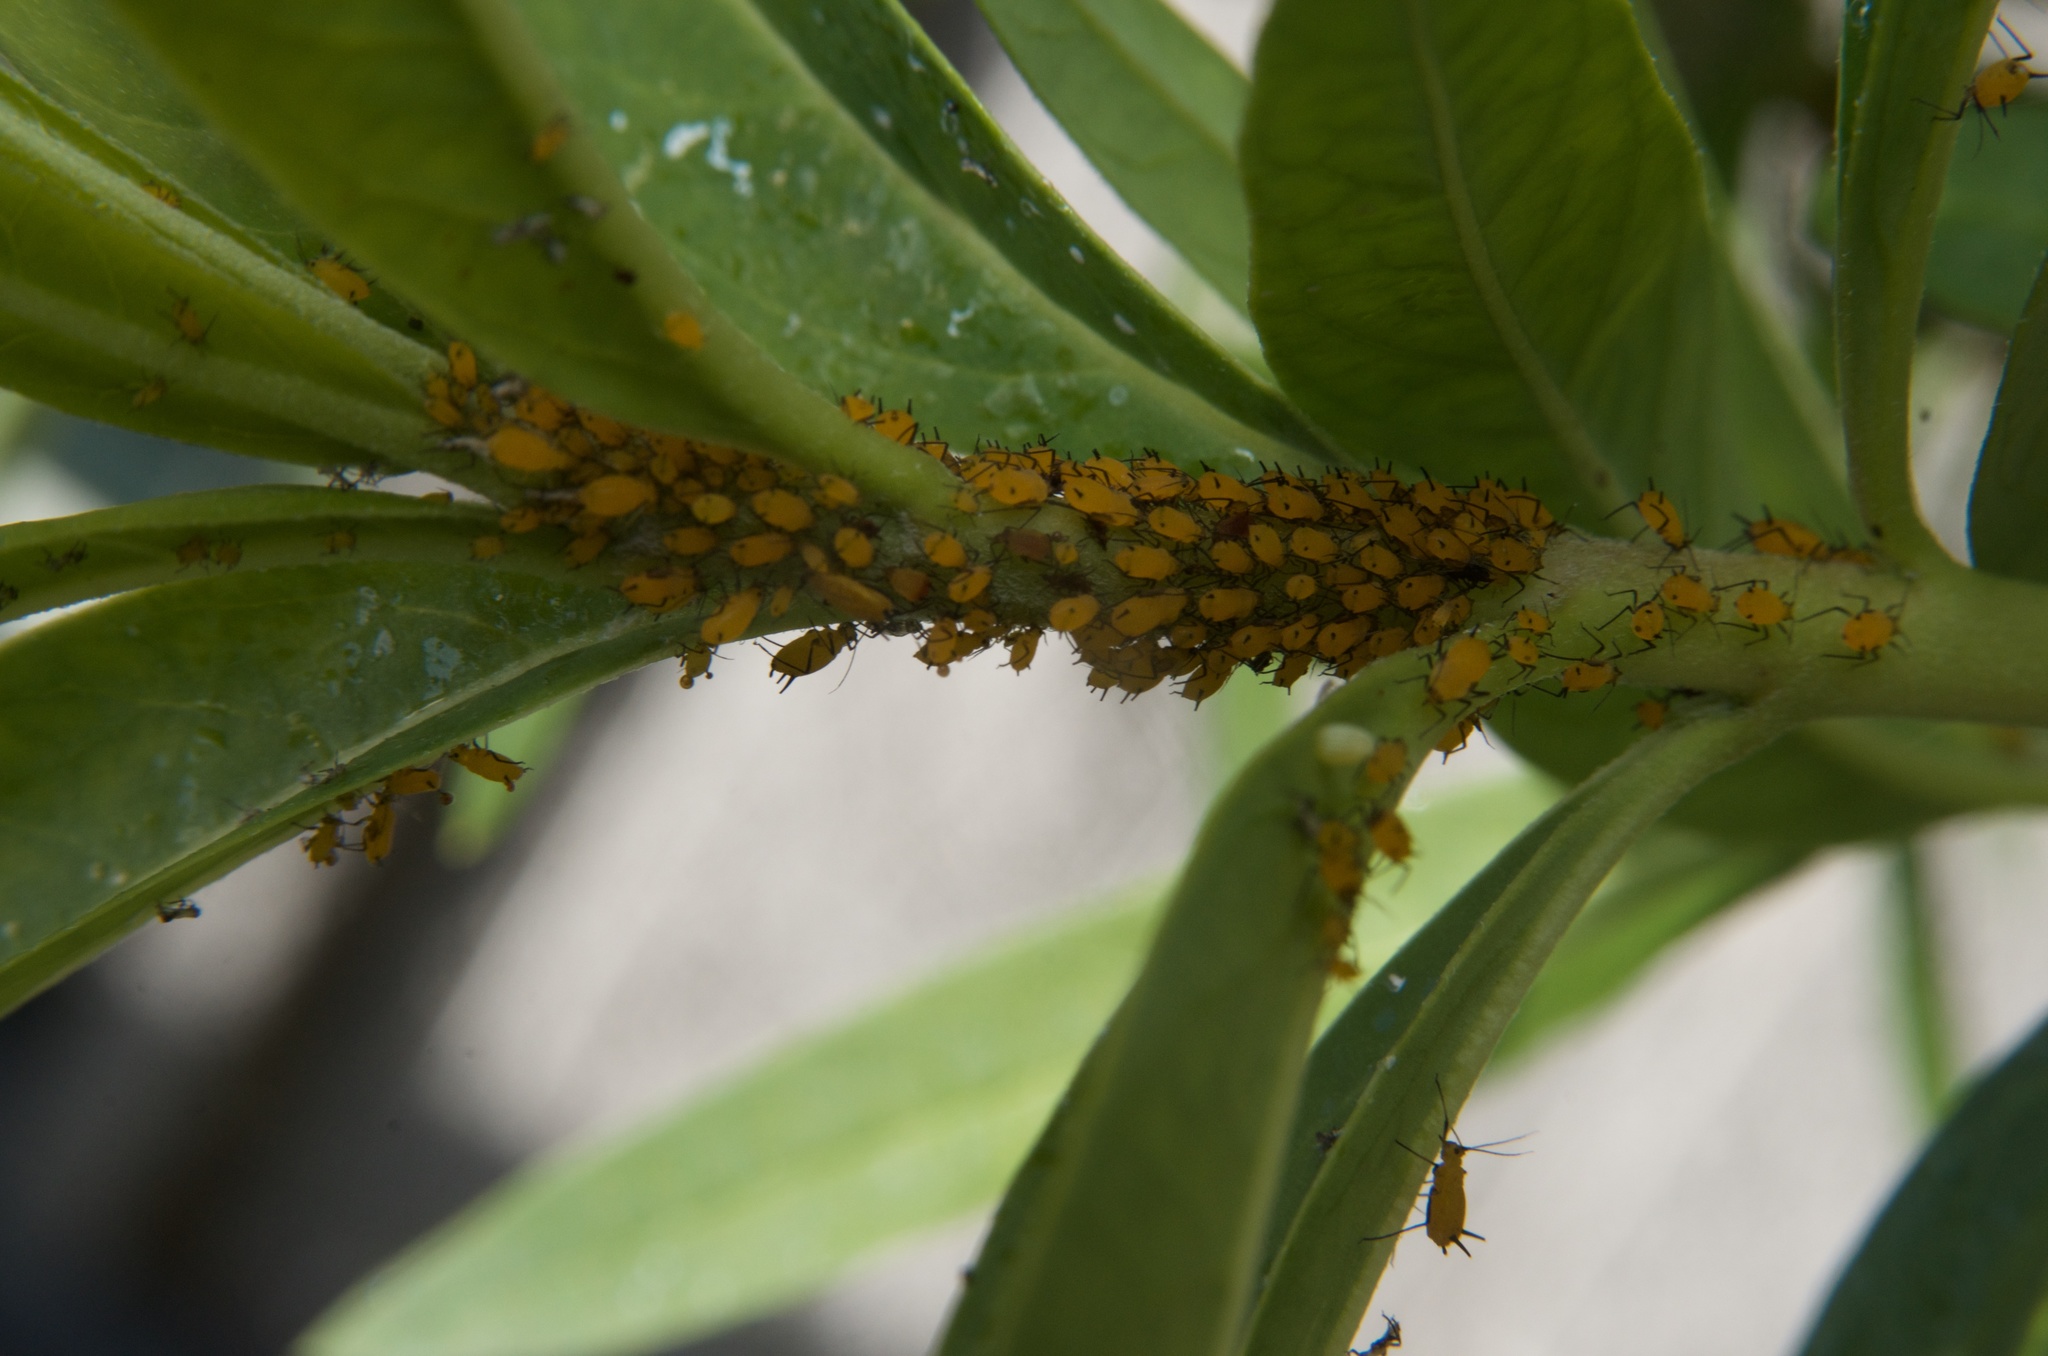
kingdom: Animalia
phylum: Arthropoda
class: Insecta
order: Hemiptera
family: Aphididae
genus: Aphis
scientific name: Aphis nerii
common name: Oleander aphid
